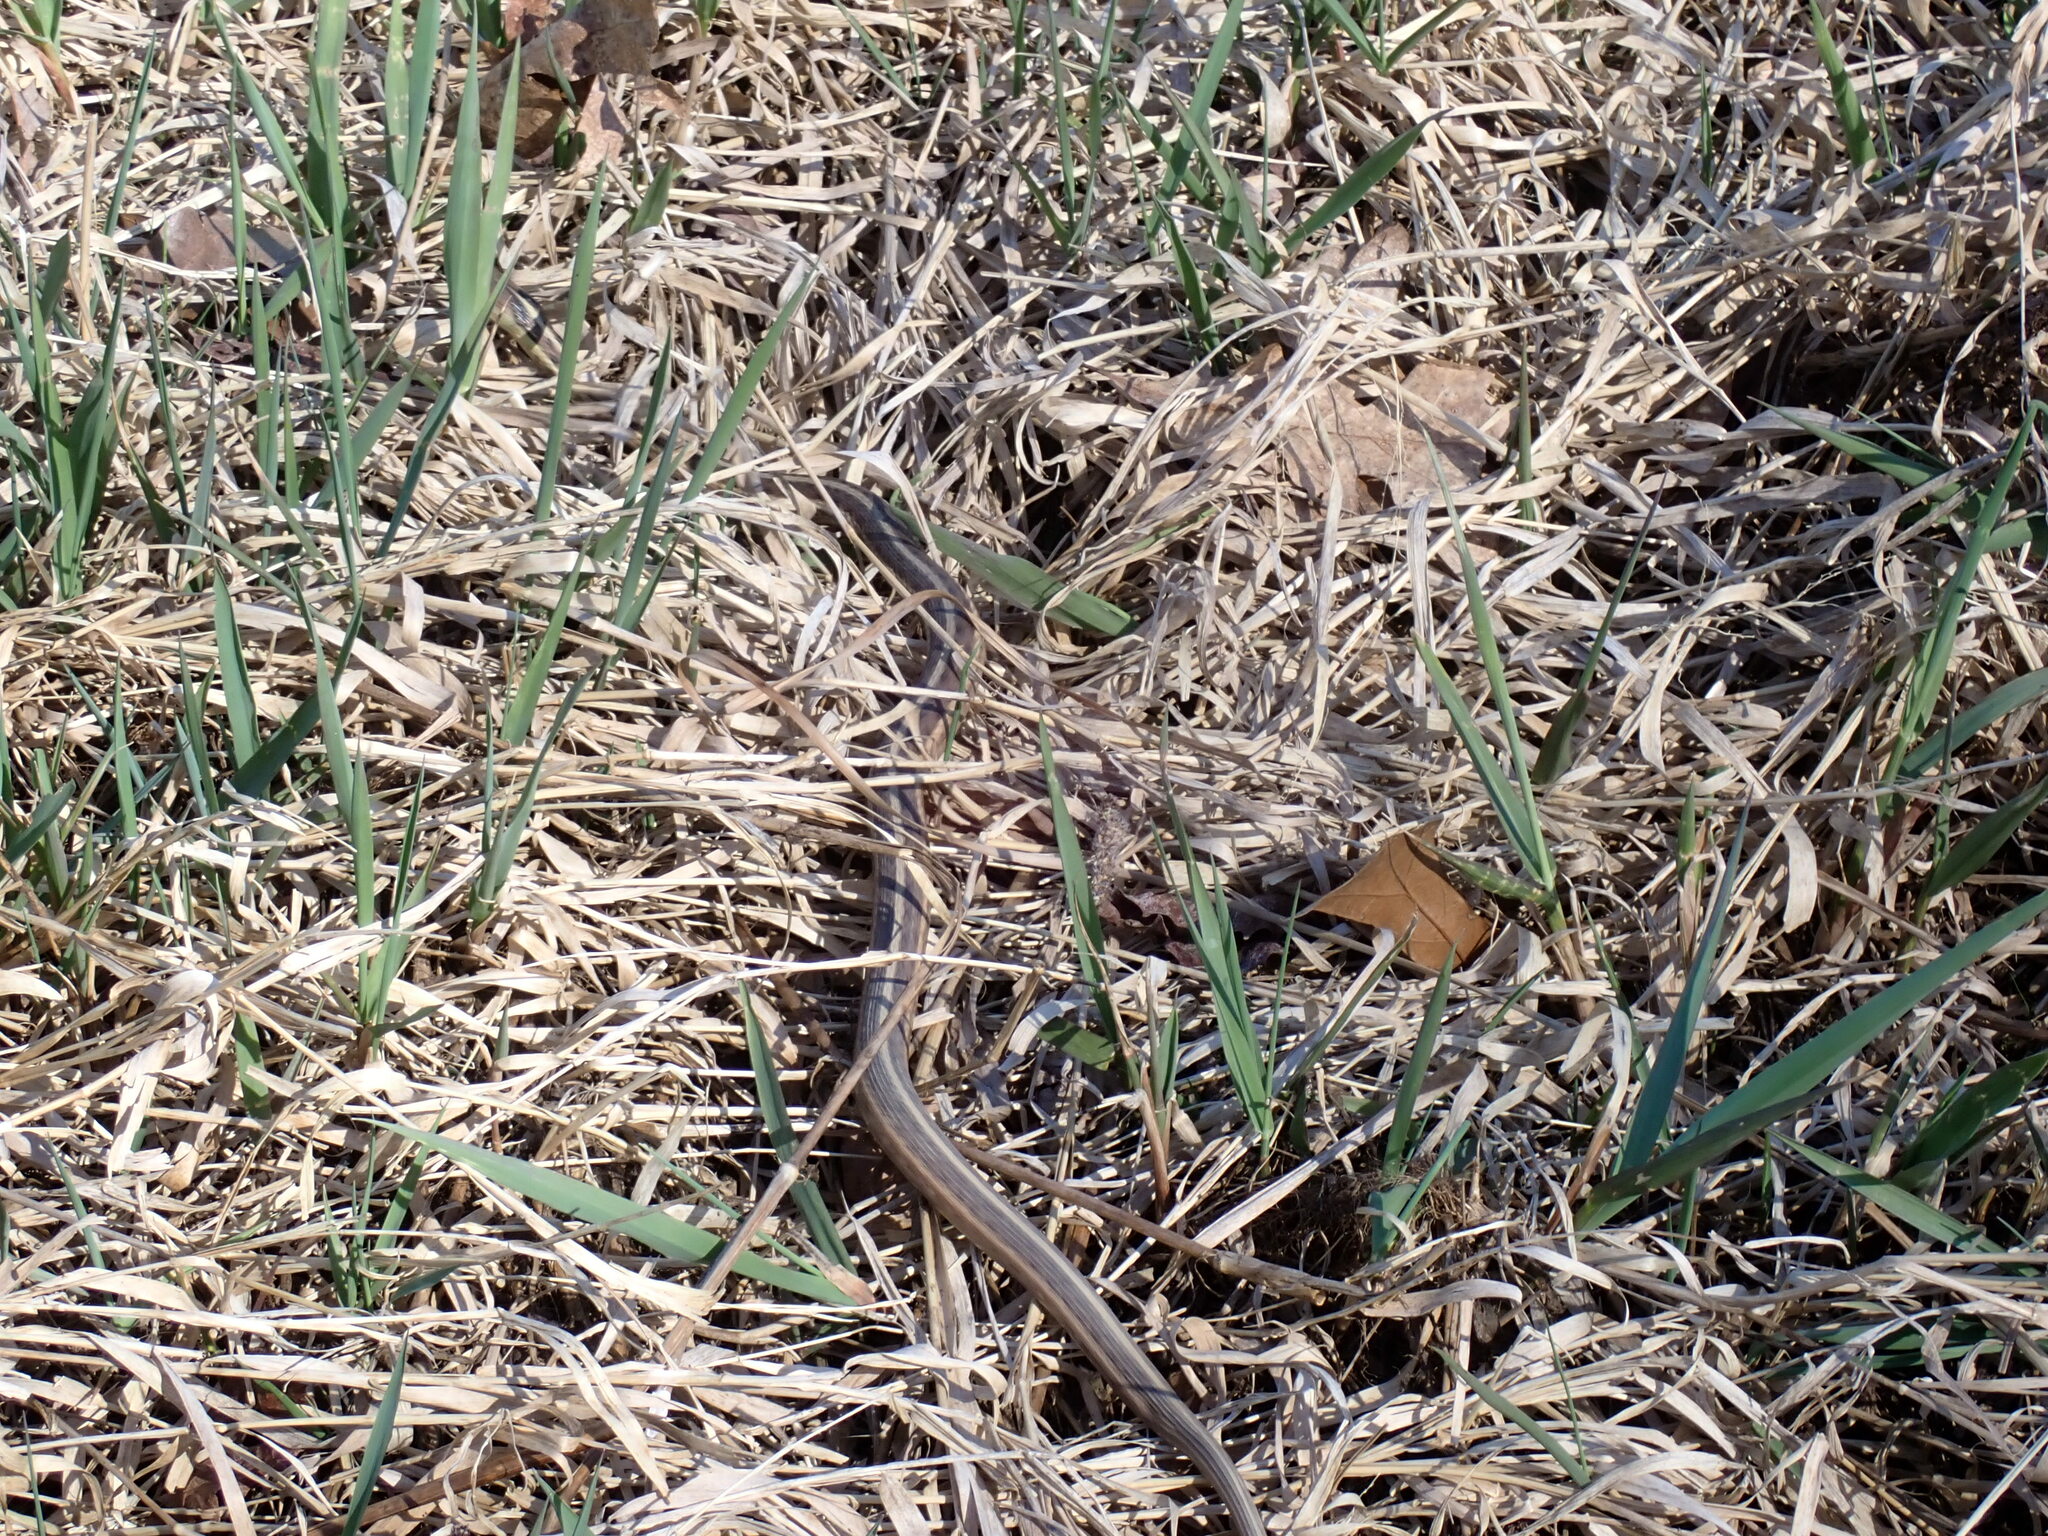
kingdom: Animalia
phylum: Chordata
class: Squamata
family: Colubridae
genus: Thamnophis
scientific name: Thamnophis sirtalis
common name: Common garter snake
